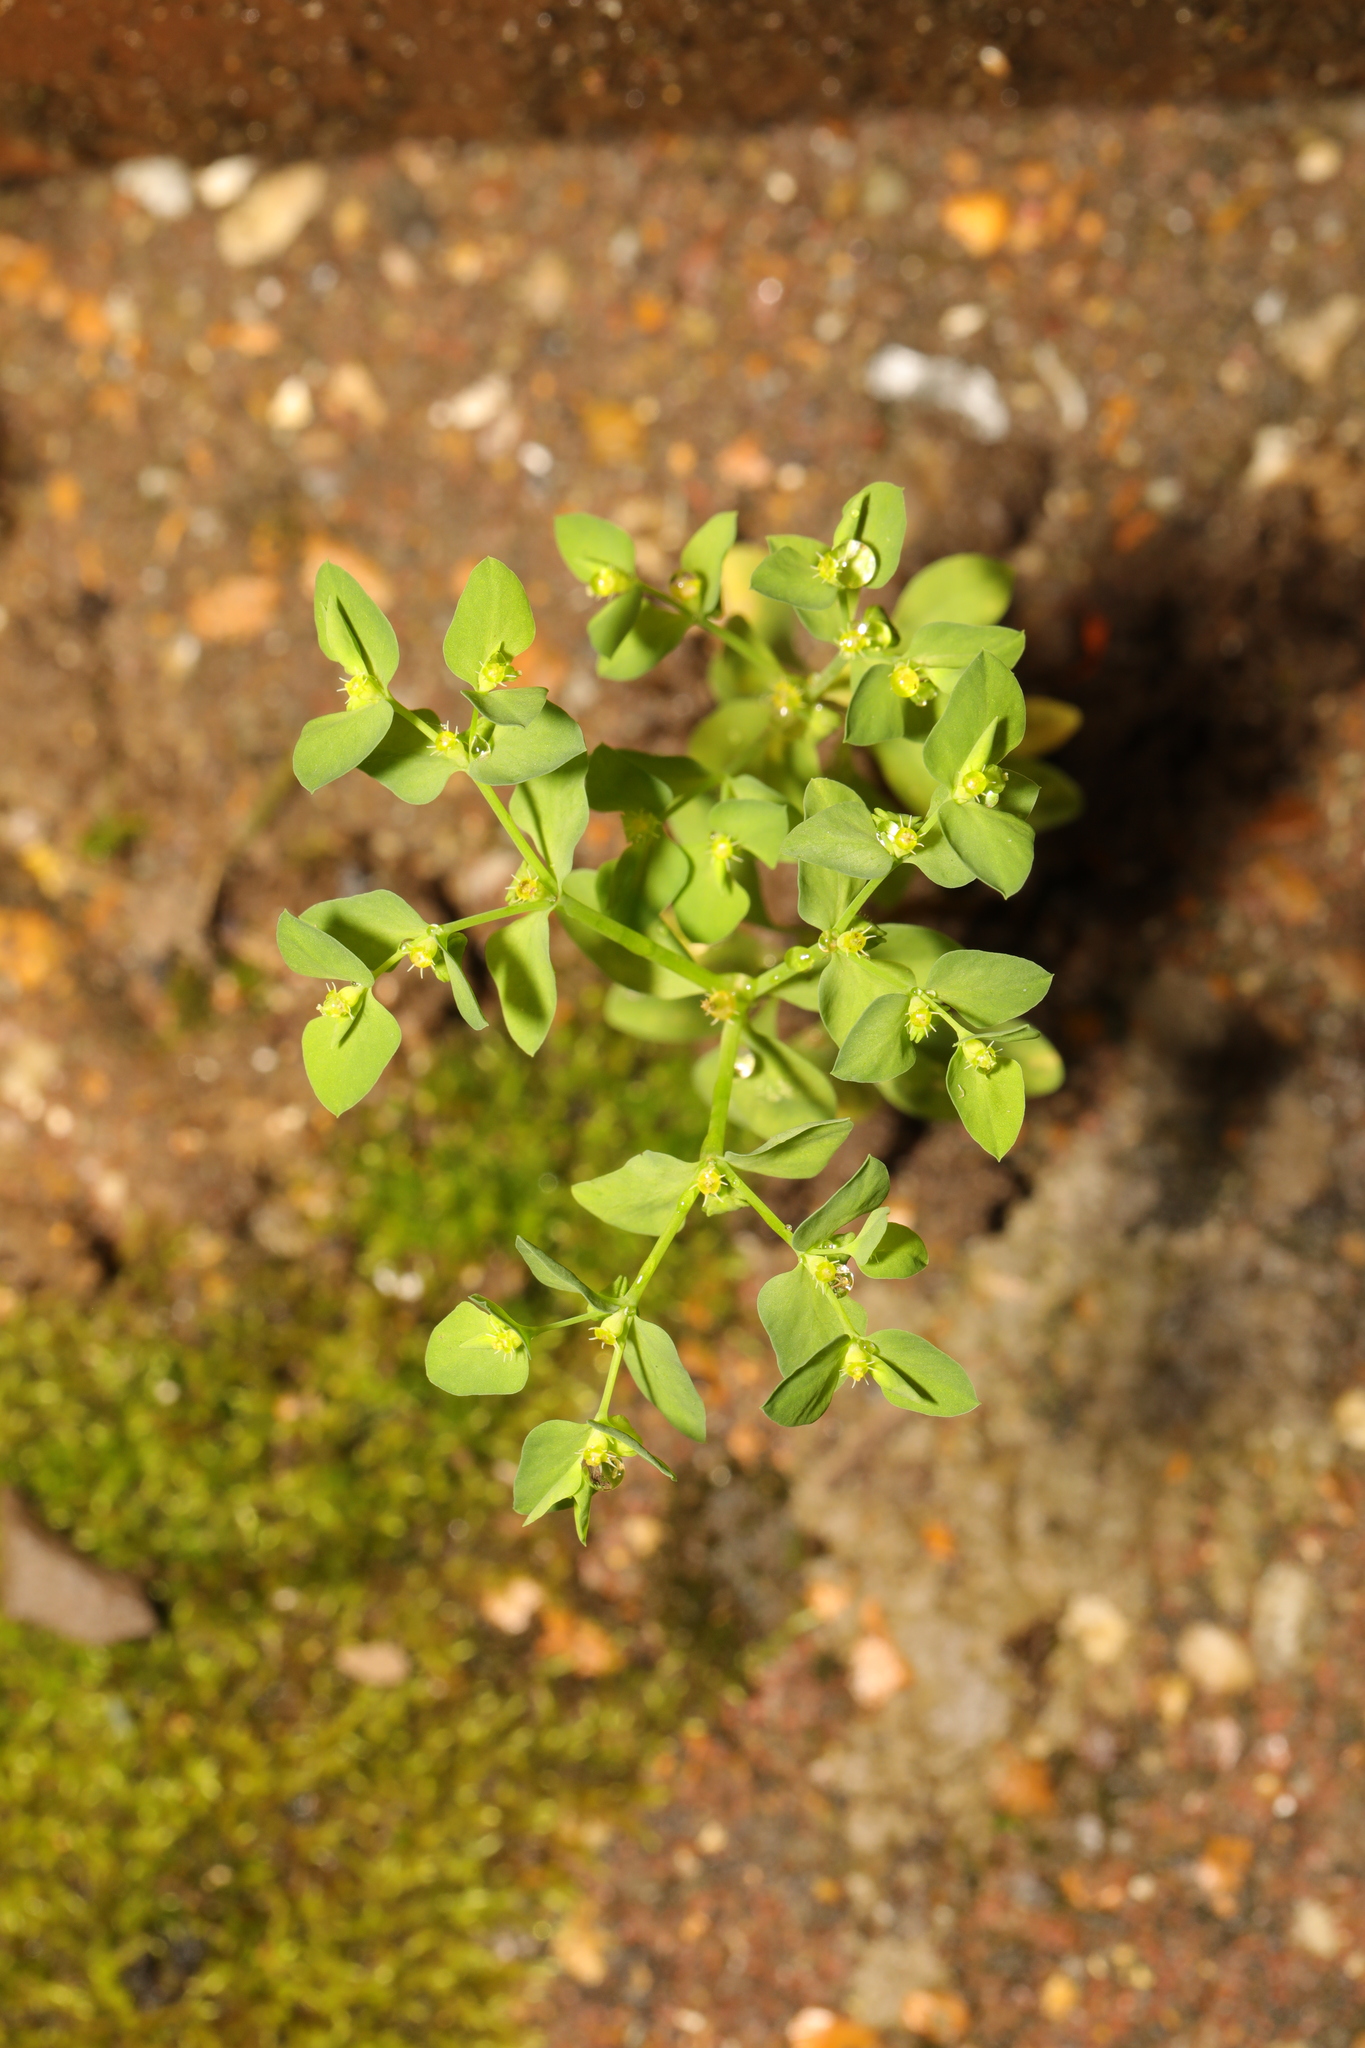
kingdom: Plantae
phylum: Tracheophyta
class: Magnoliopsida
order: Malpighiales
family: Euphorbiaceae
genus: Euphorbia
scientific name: Euphorbia peplus
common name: Petty spurge
